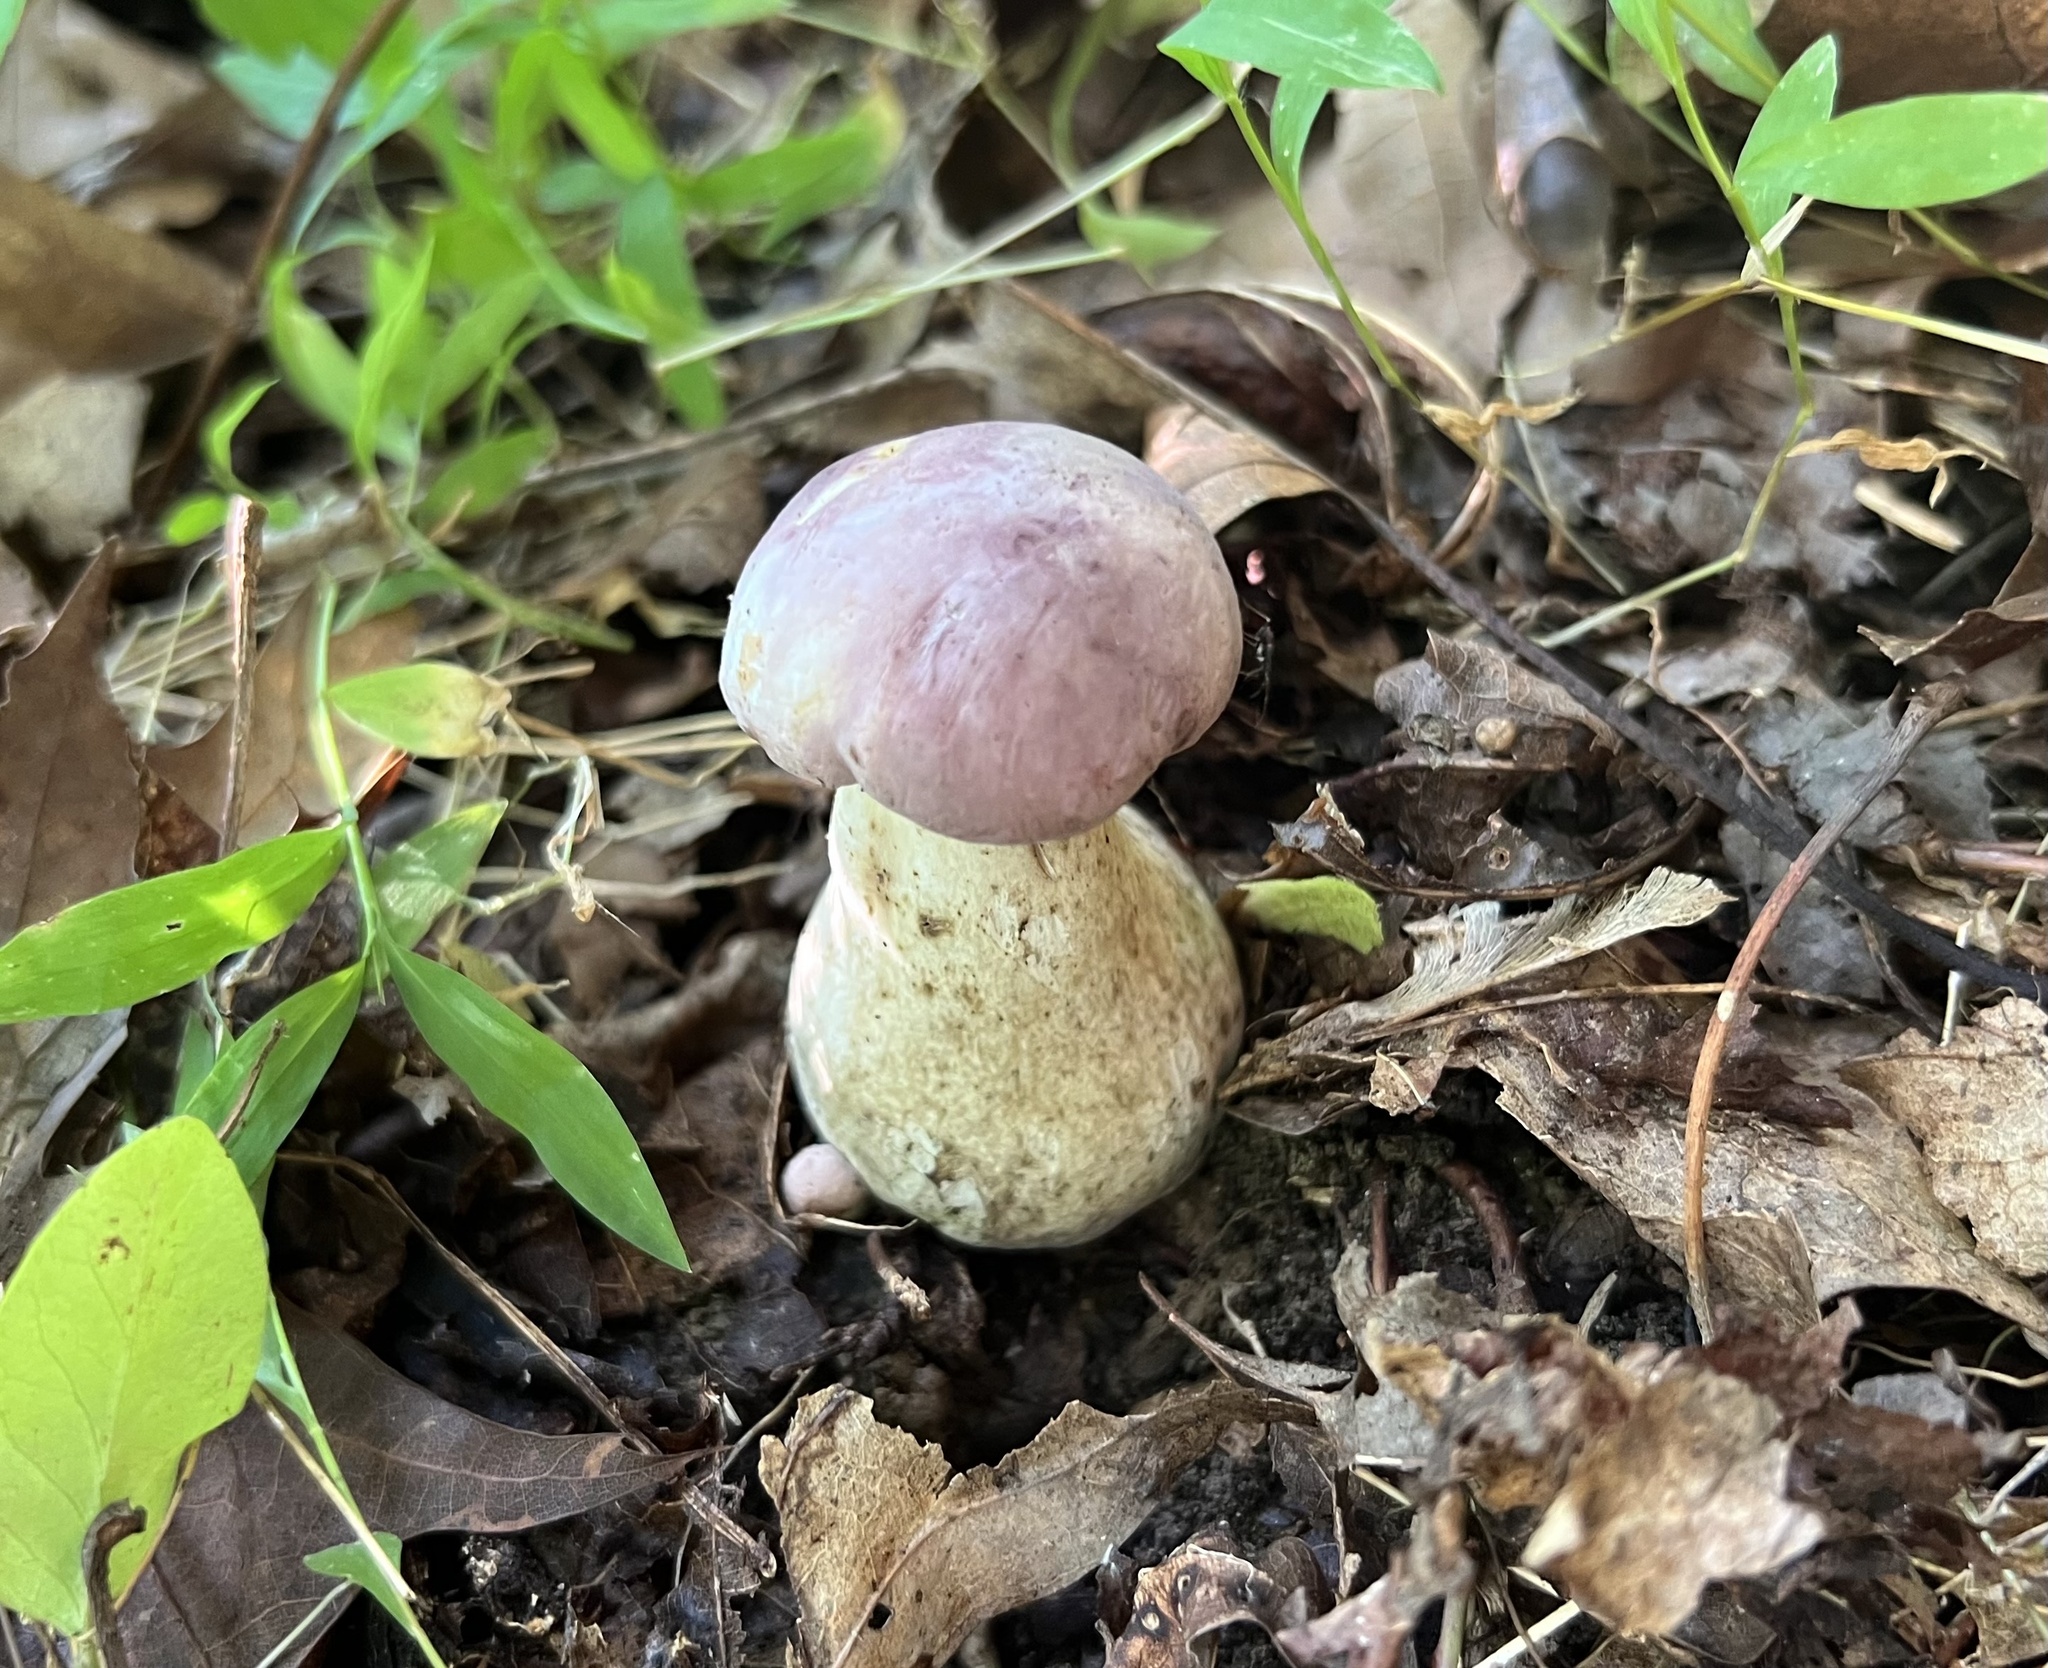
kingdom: Fungi
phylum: Basidiomycota
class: Agaricomycetes
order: Boletales
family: Boletaceae
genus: Tylopilus
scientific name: Tylopilus rubrobrunneus
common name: Reddish brown bitter bolete
